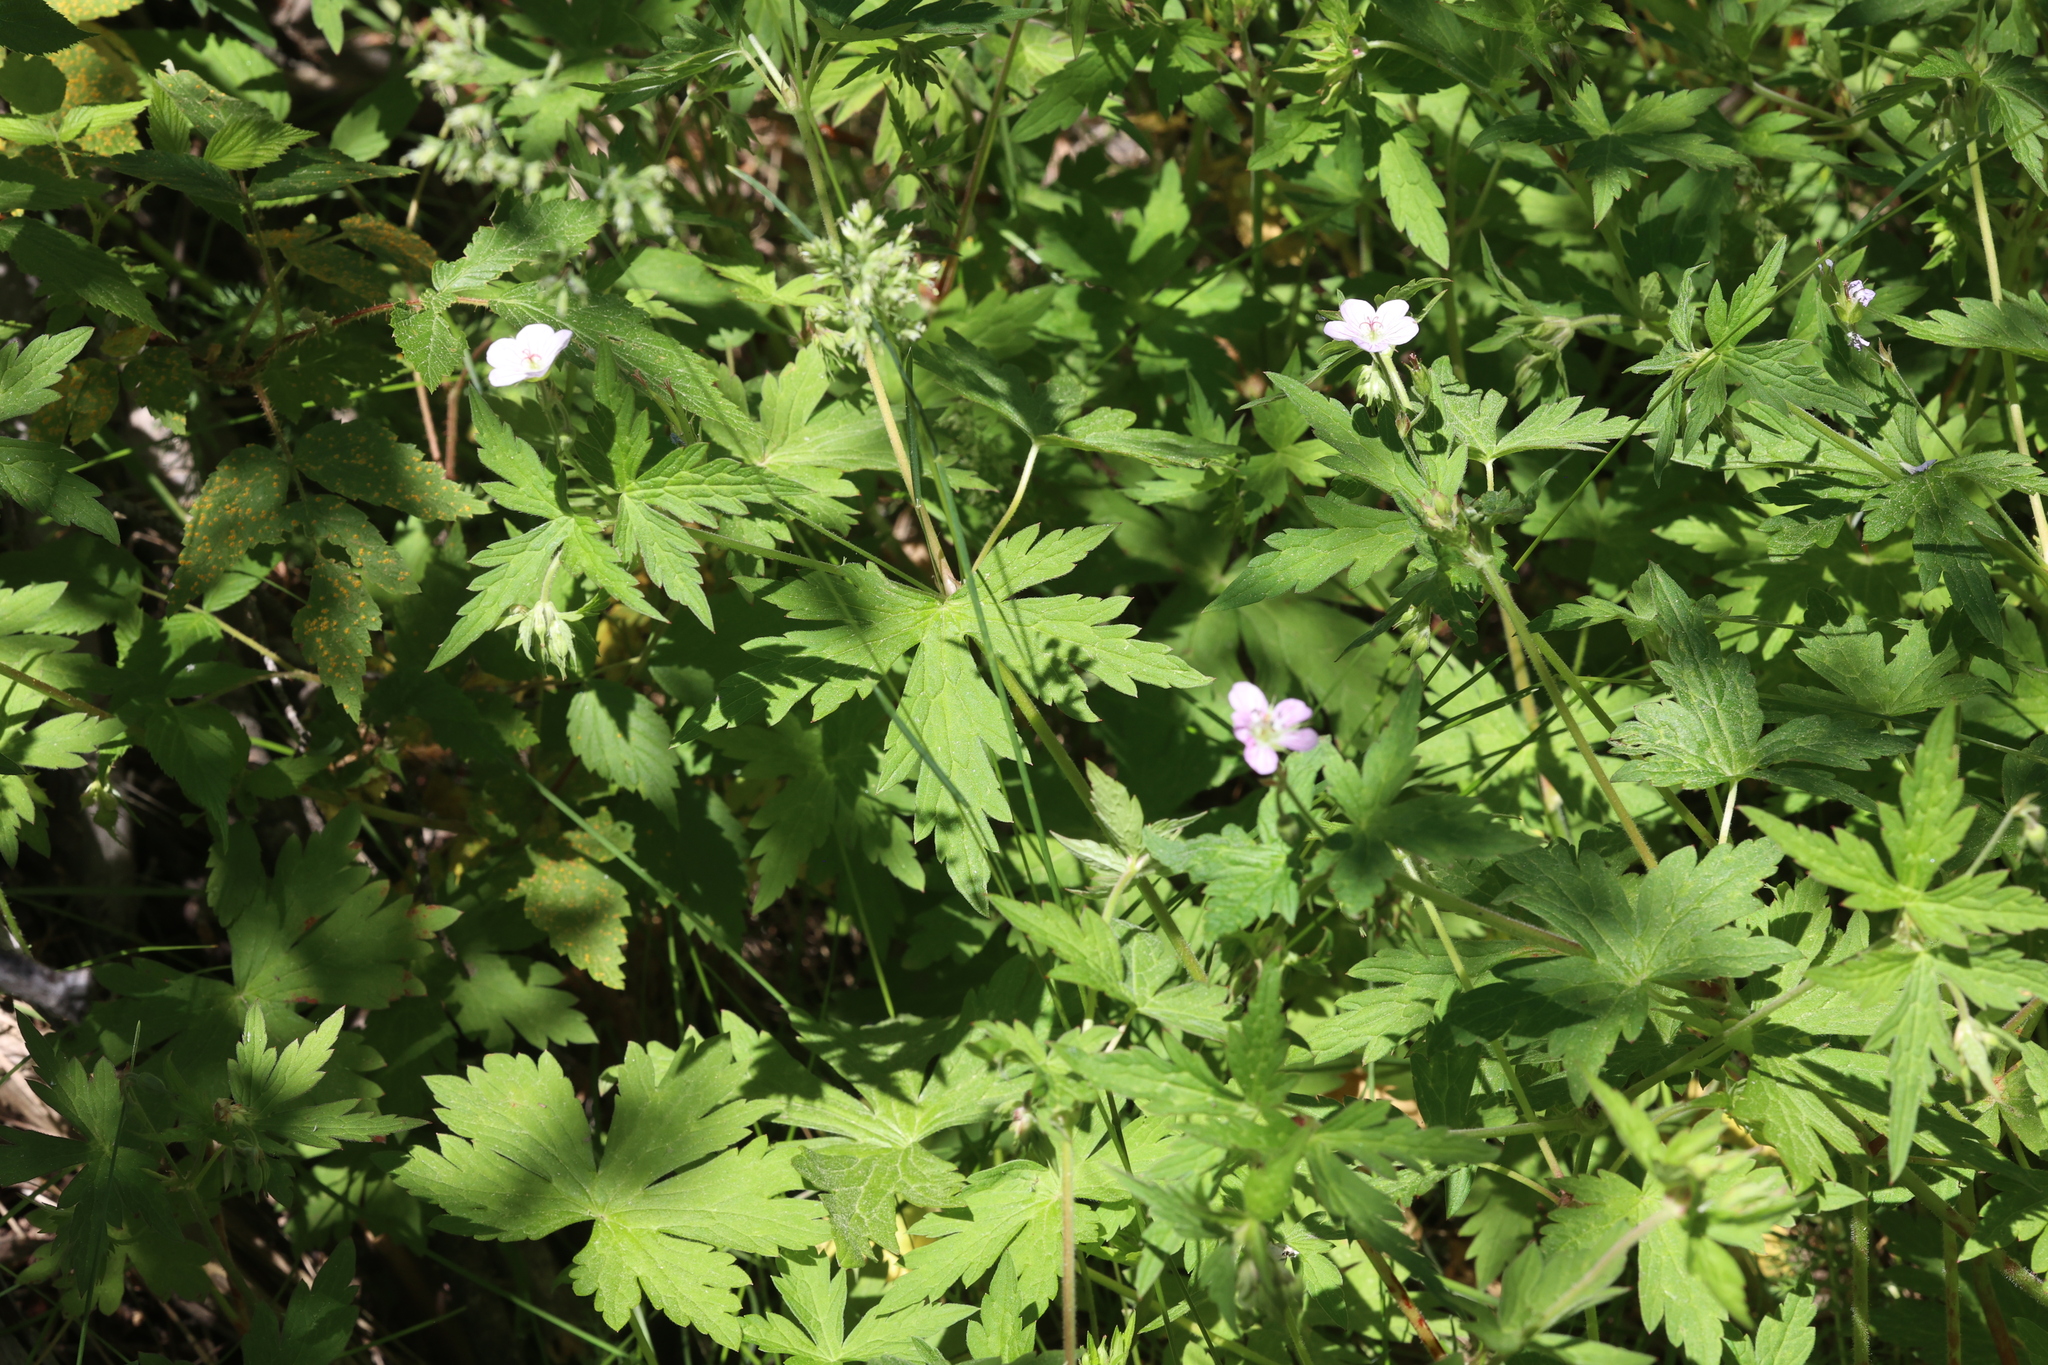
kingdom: Plantae
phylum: Tracheophyta
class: Magnoliopsida
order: Geraniales
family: Geraniaceae
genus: Geranium
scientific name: Geranium richardsonii
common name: Richardson's crane's-bill
